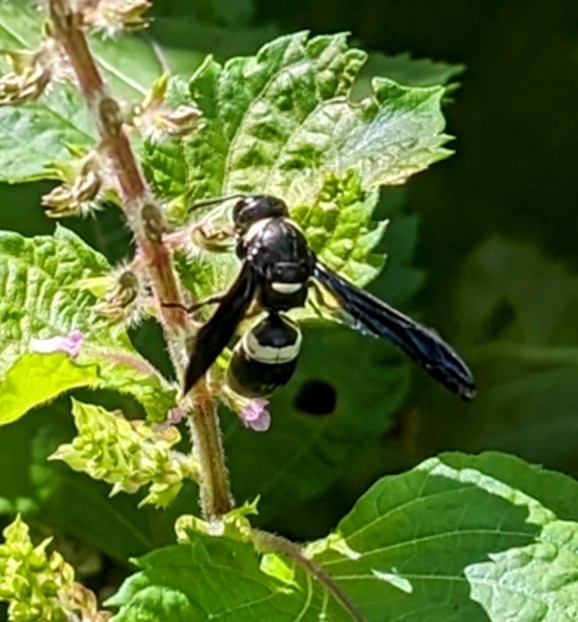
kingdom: Animalia
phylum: Arthropoda
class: Insecta
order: Hymenoptera
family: Eumenidae
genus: Monobia
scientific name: Monobia quadridens
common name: Four-toothed mason wasp
